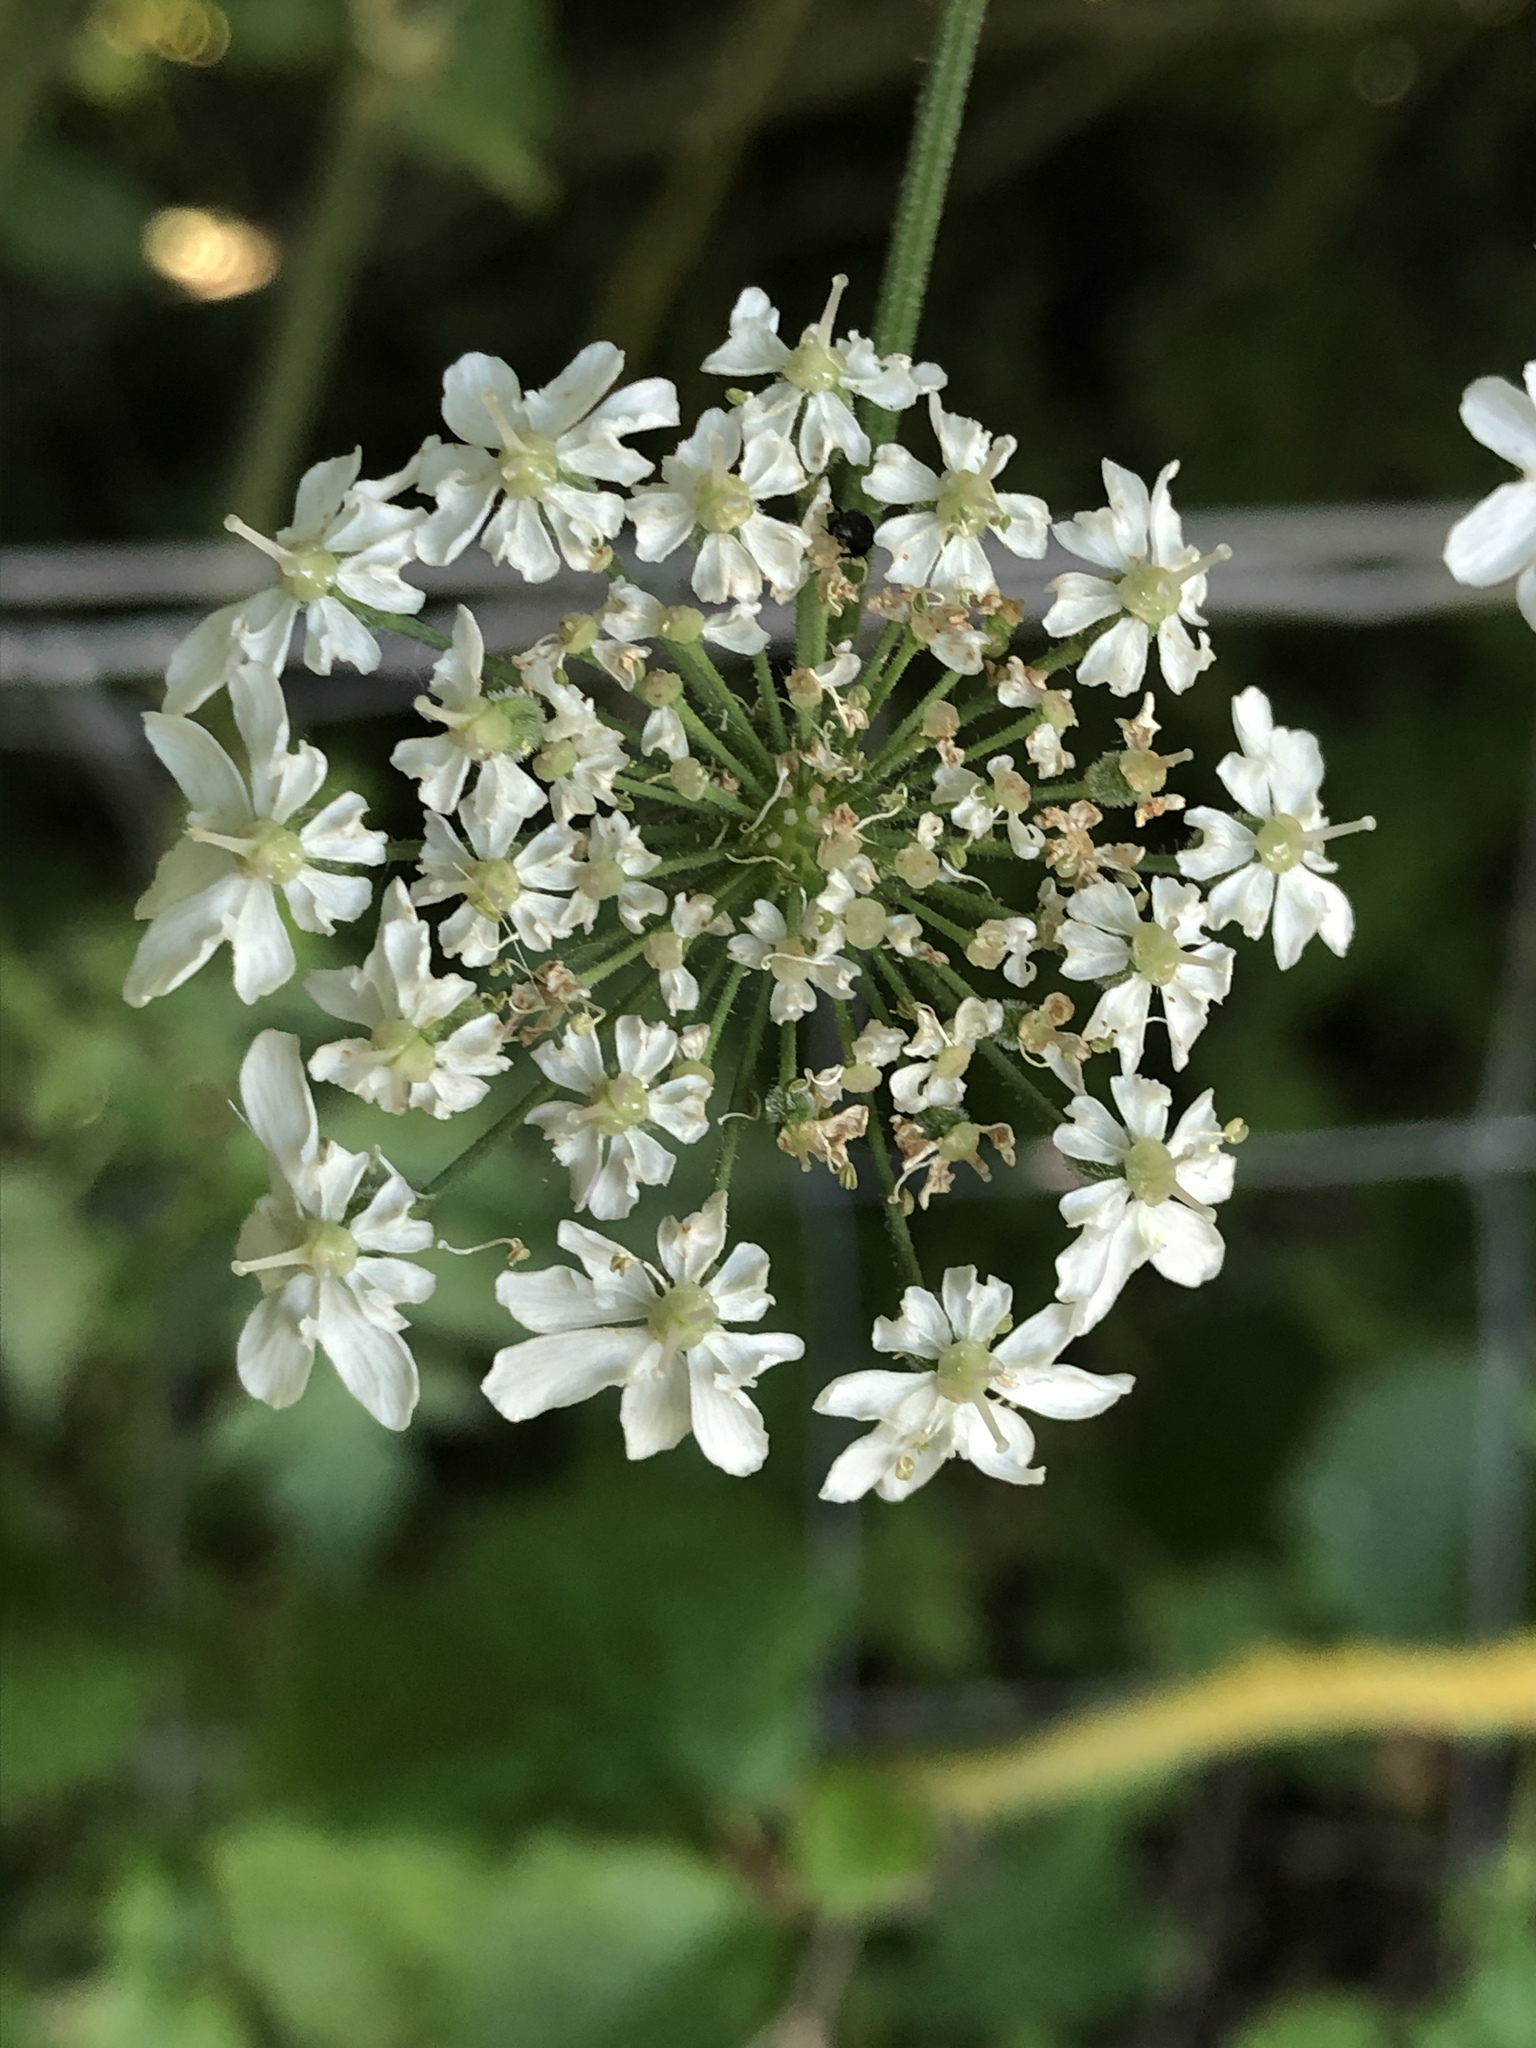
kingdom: Plantae
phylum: Tracheophyta
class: Magnoliopsida
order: Apiales
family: Apiaceae
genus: Heracleum
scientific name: Heracleum sphondylium
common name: Hogweed
